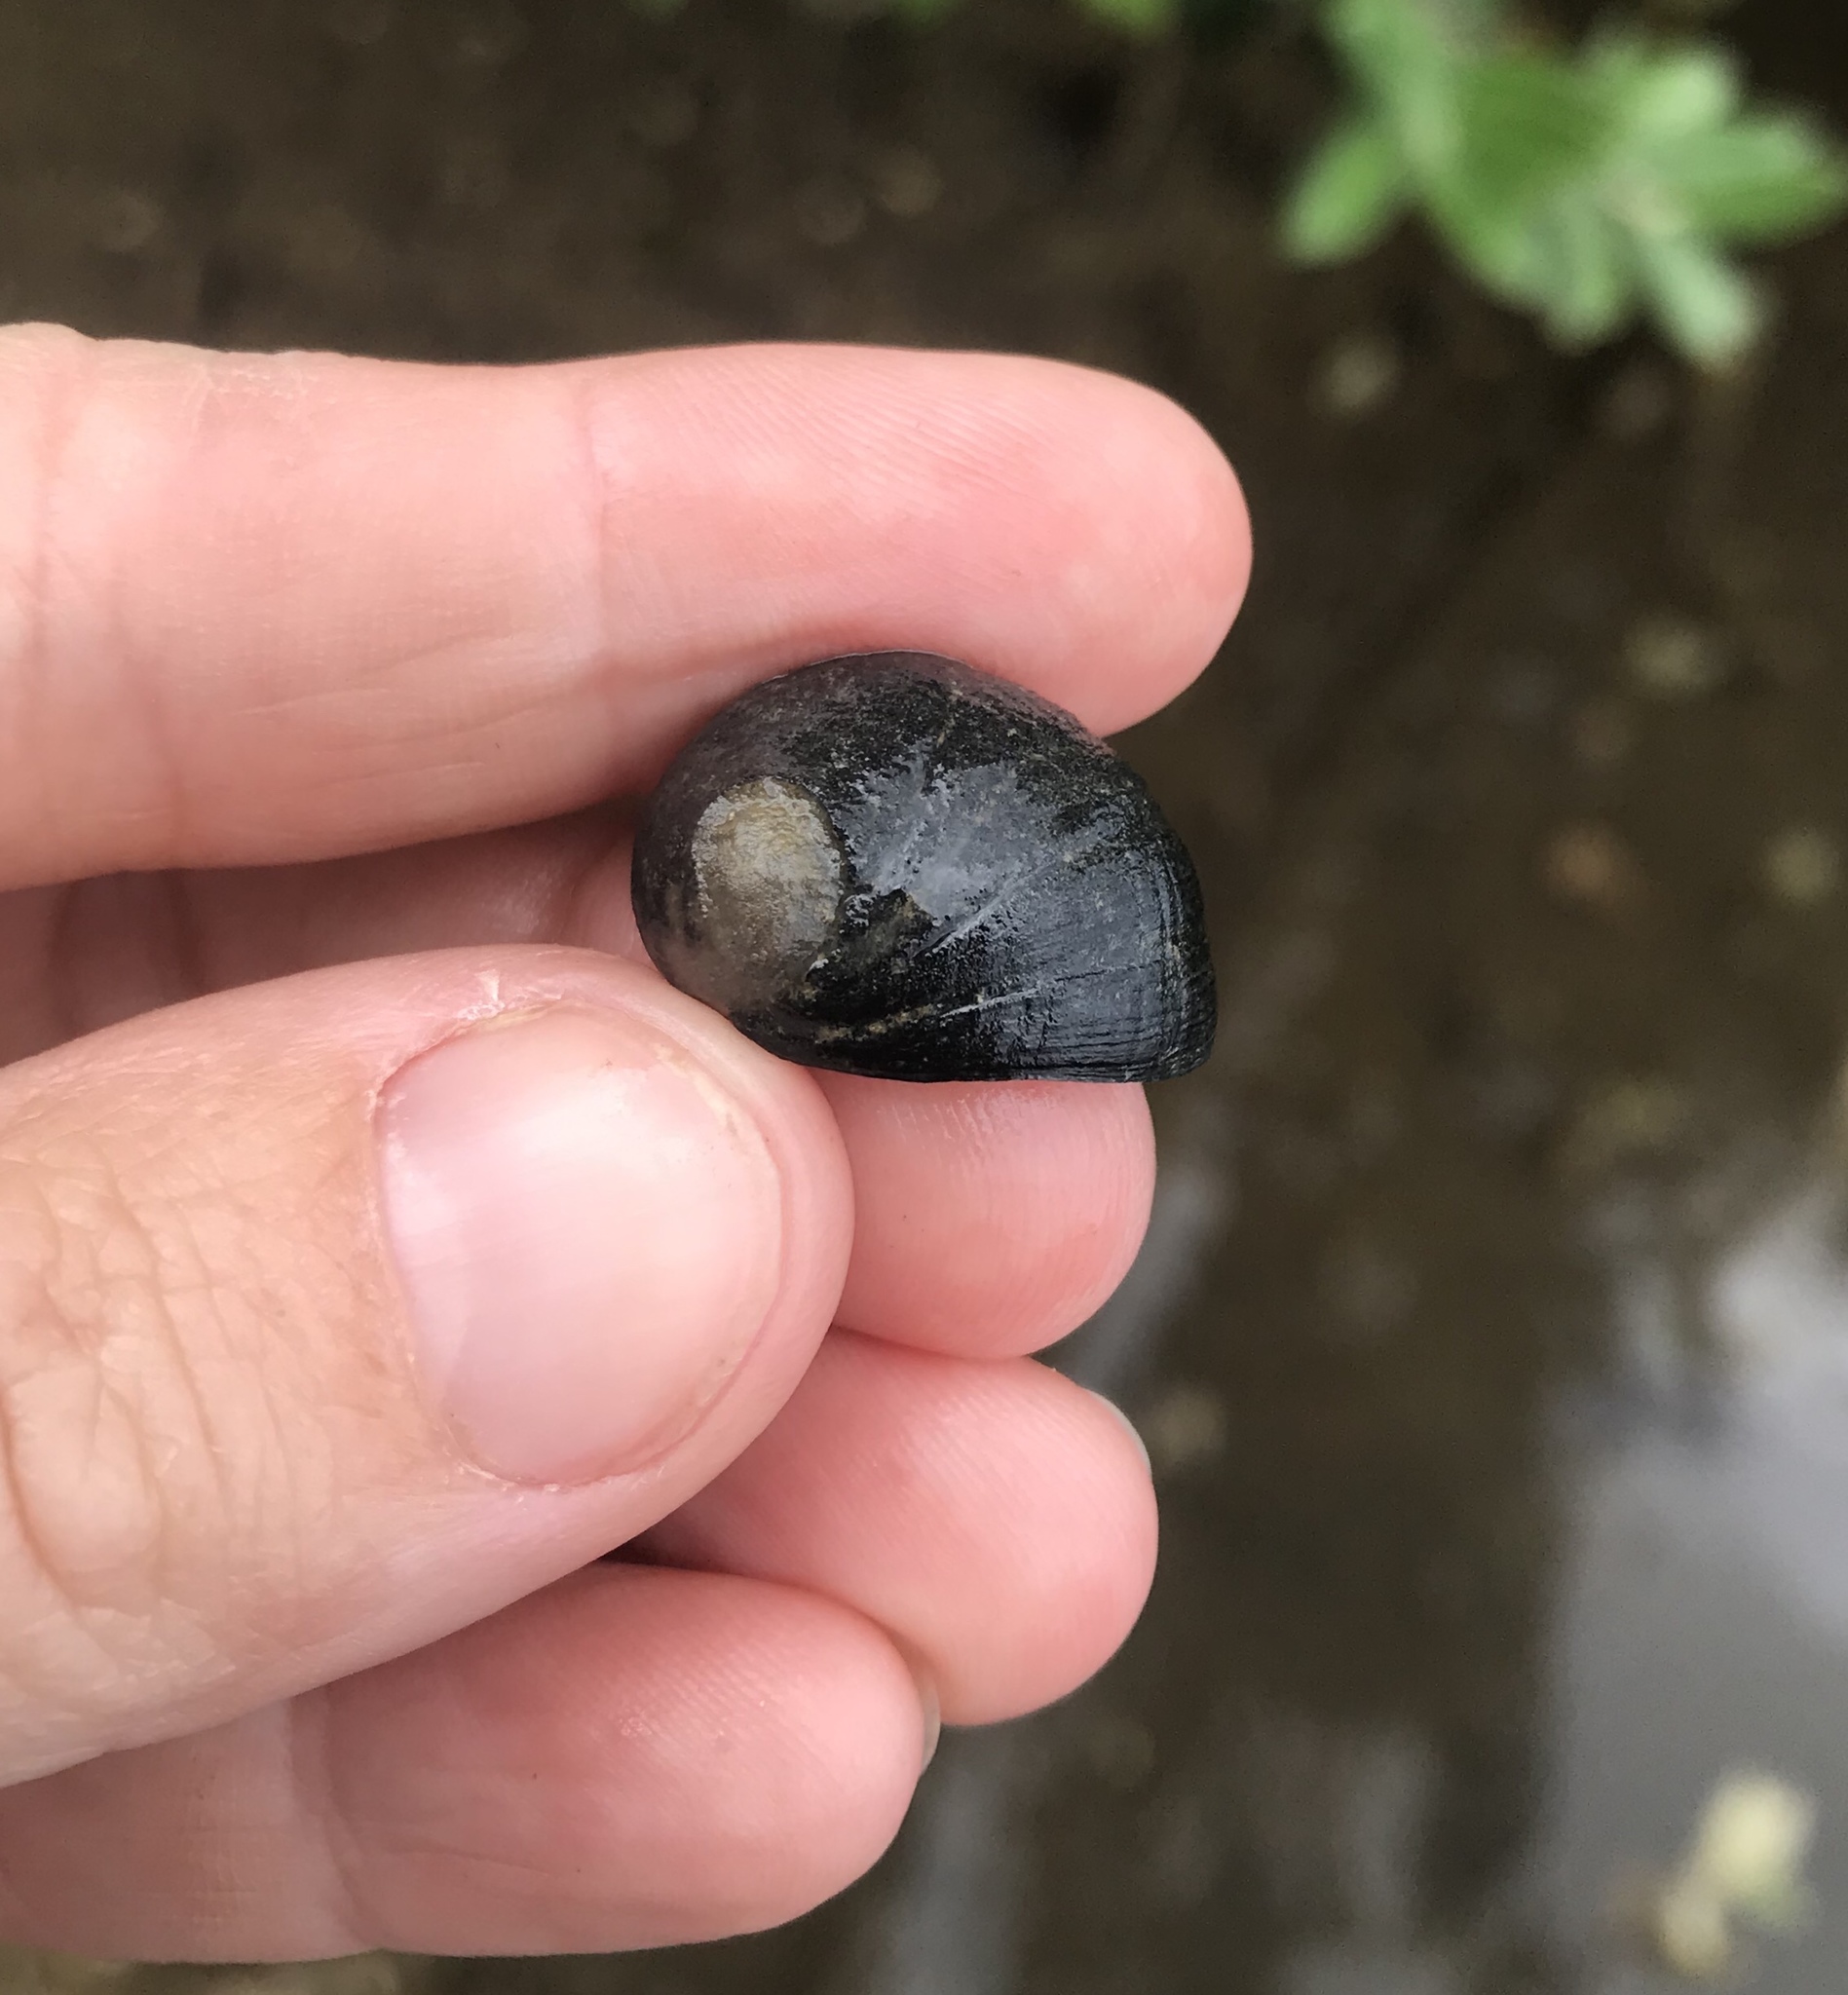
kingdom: Animalia
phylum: Mollusca
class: Gastropoda
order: Cycloneritida
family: Neritidae
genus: Nerita
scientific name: Nerita melanotragus
